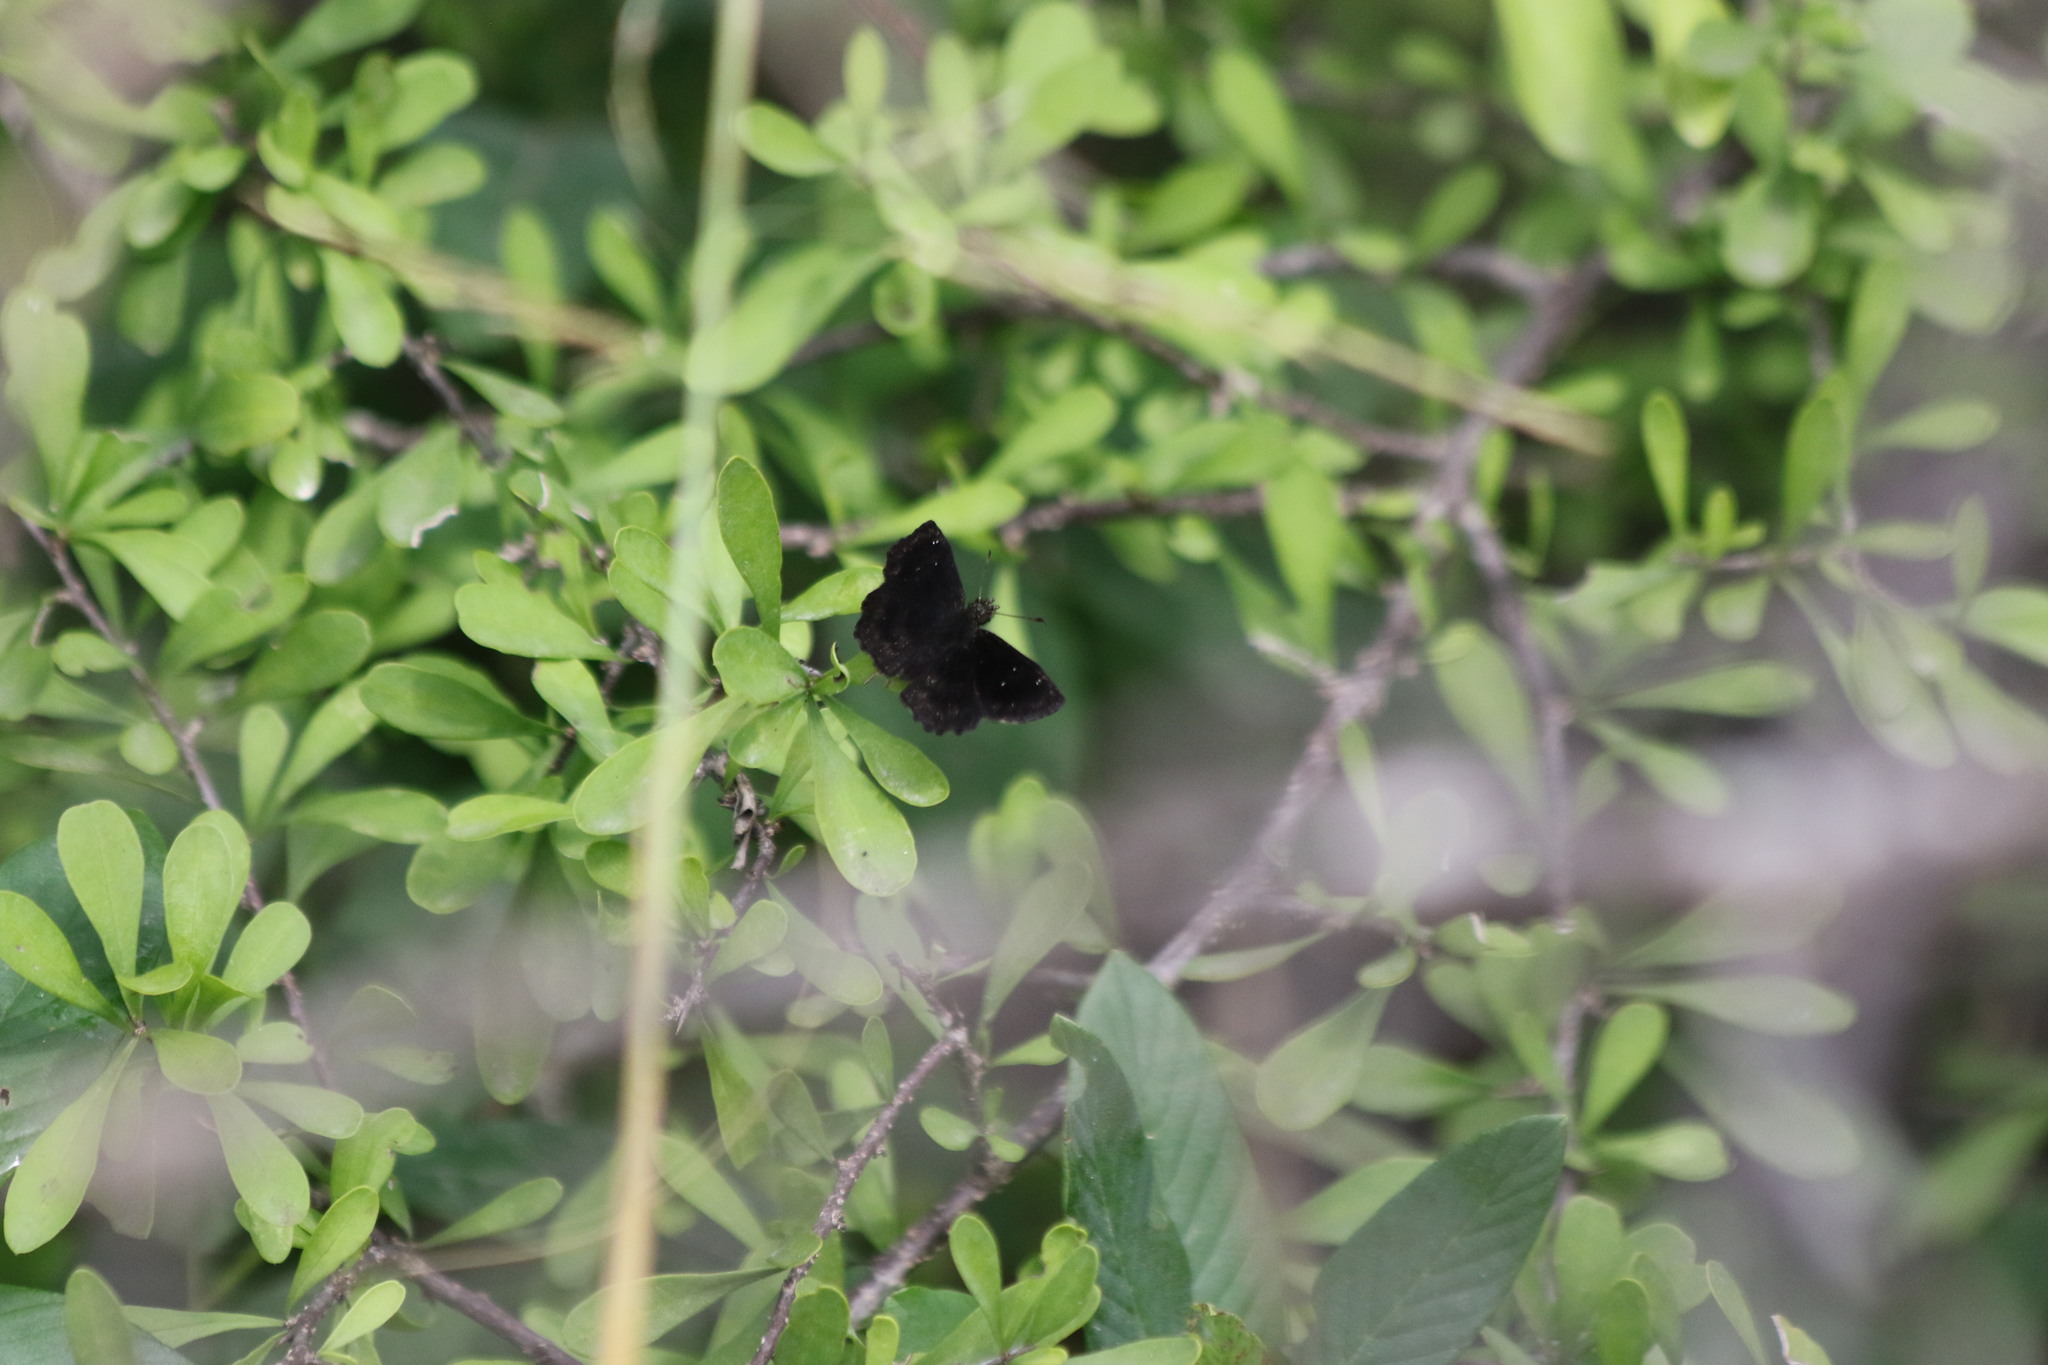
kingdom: Animalia
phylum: Arthropoda
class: Insecta
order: Lepidoptera
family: Hesperiidae
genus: Staphylus
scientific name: Staphylus mazans
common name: Mazans scallopwing
